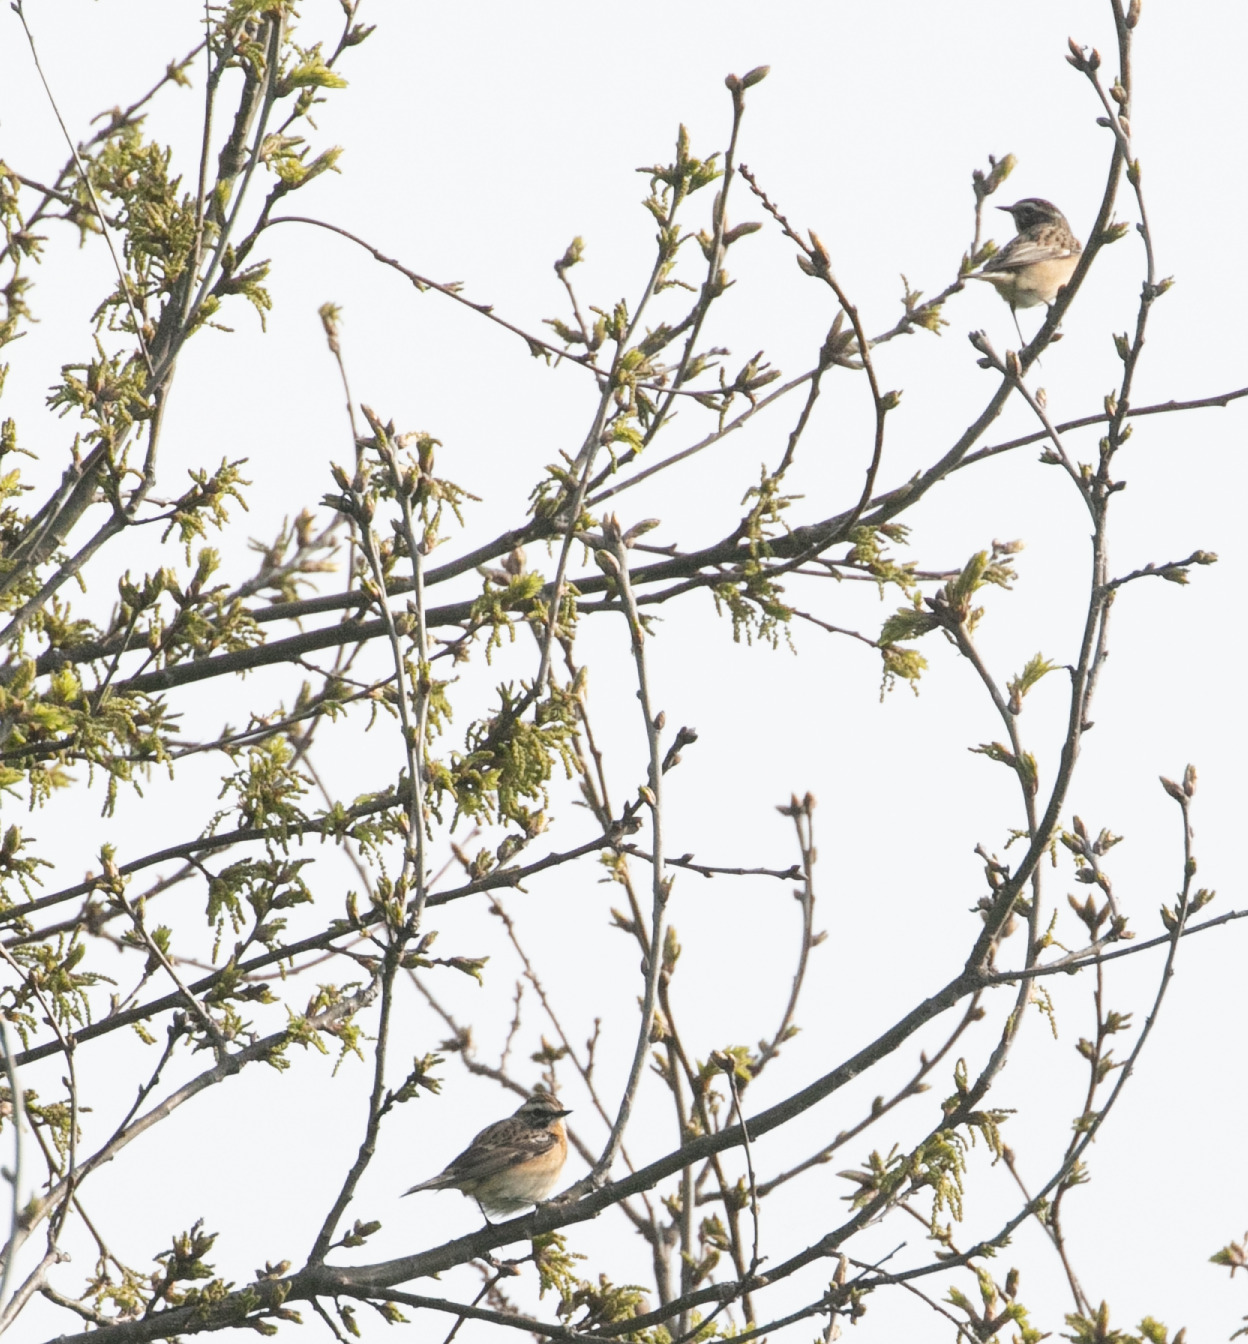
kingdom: Animalia
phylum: Chordata
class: Aves
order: Passeriformes
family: Muscicapidae
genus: Saxicola
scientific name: Saxicola rubetra
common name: Whinchat
